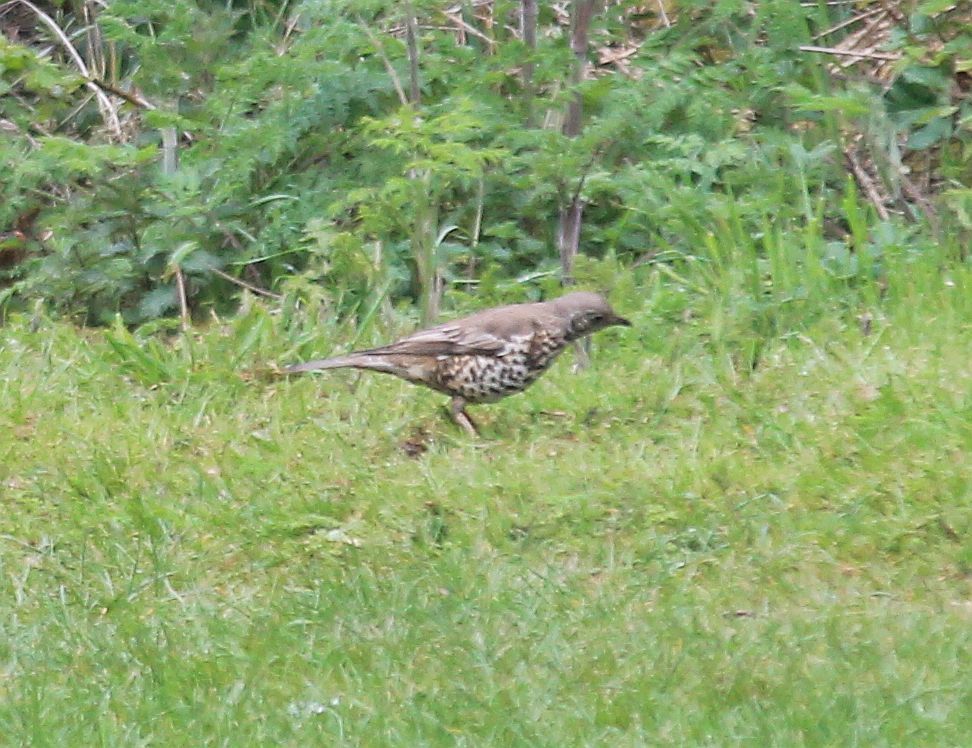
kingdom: Animalia
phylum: Chordata
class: Aves
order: Passeriformes
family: Turdidae
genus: Turdus
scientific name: Turdus viscivorus
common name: Mistle thrush
